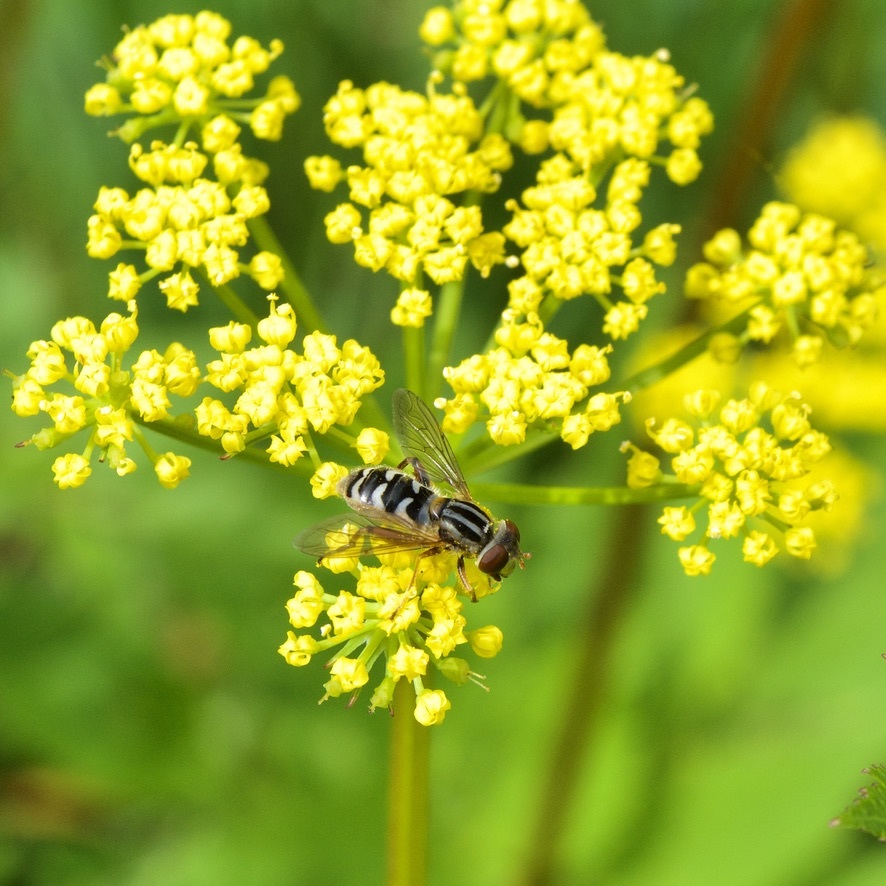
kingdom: Animalia
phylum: Arthropoda
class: Insecta
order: Diptera
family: Syrphidae
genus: Anasimyia
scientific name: Anasimyia
